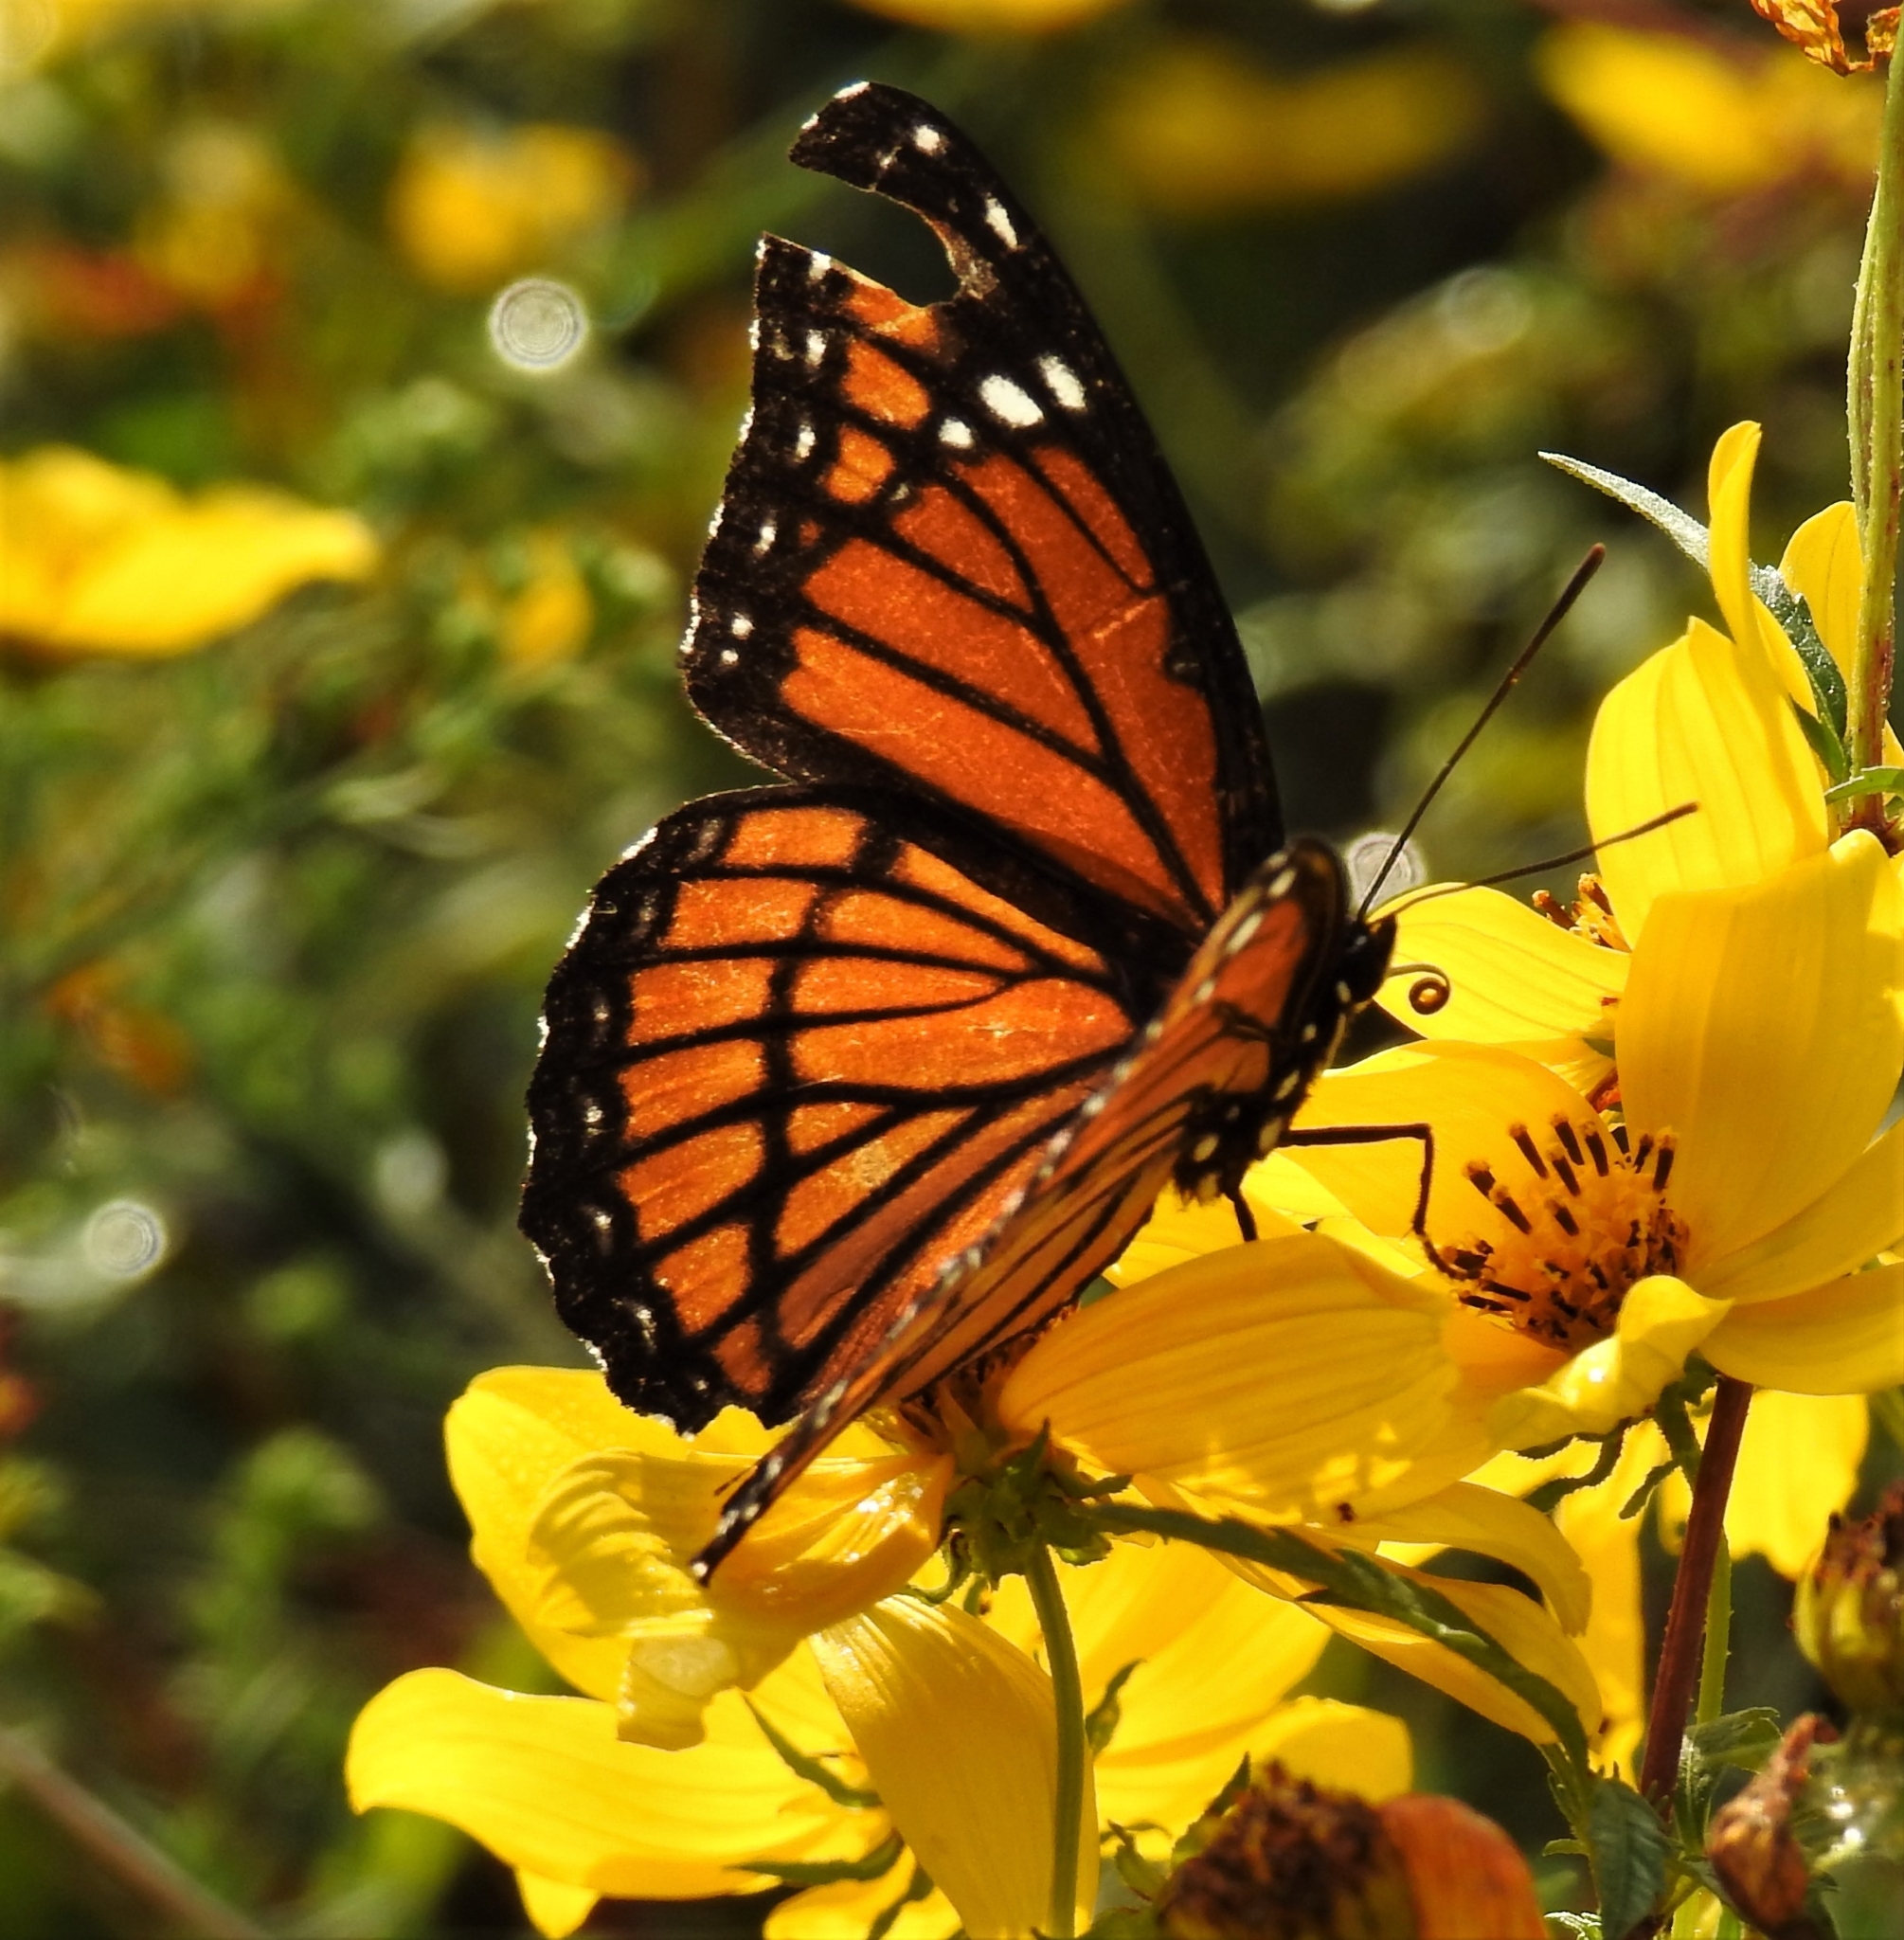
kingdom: Animalia
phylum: Arthropoda
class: Insecta
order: Lepidoptera
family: Nymphalidae
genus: Limenitis
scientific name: Limenitis archippus
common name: Viceroy
